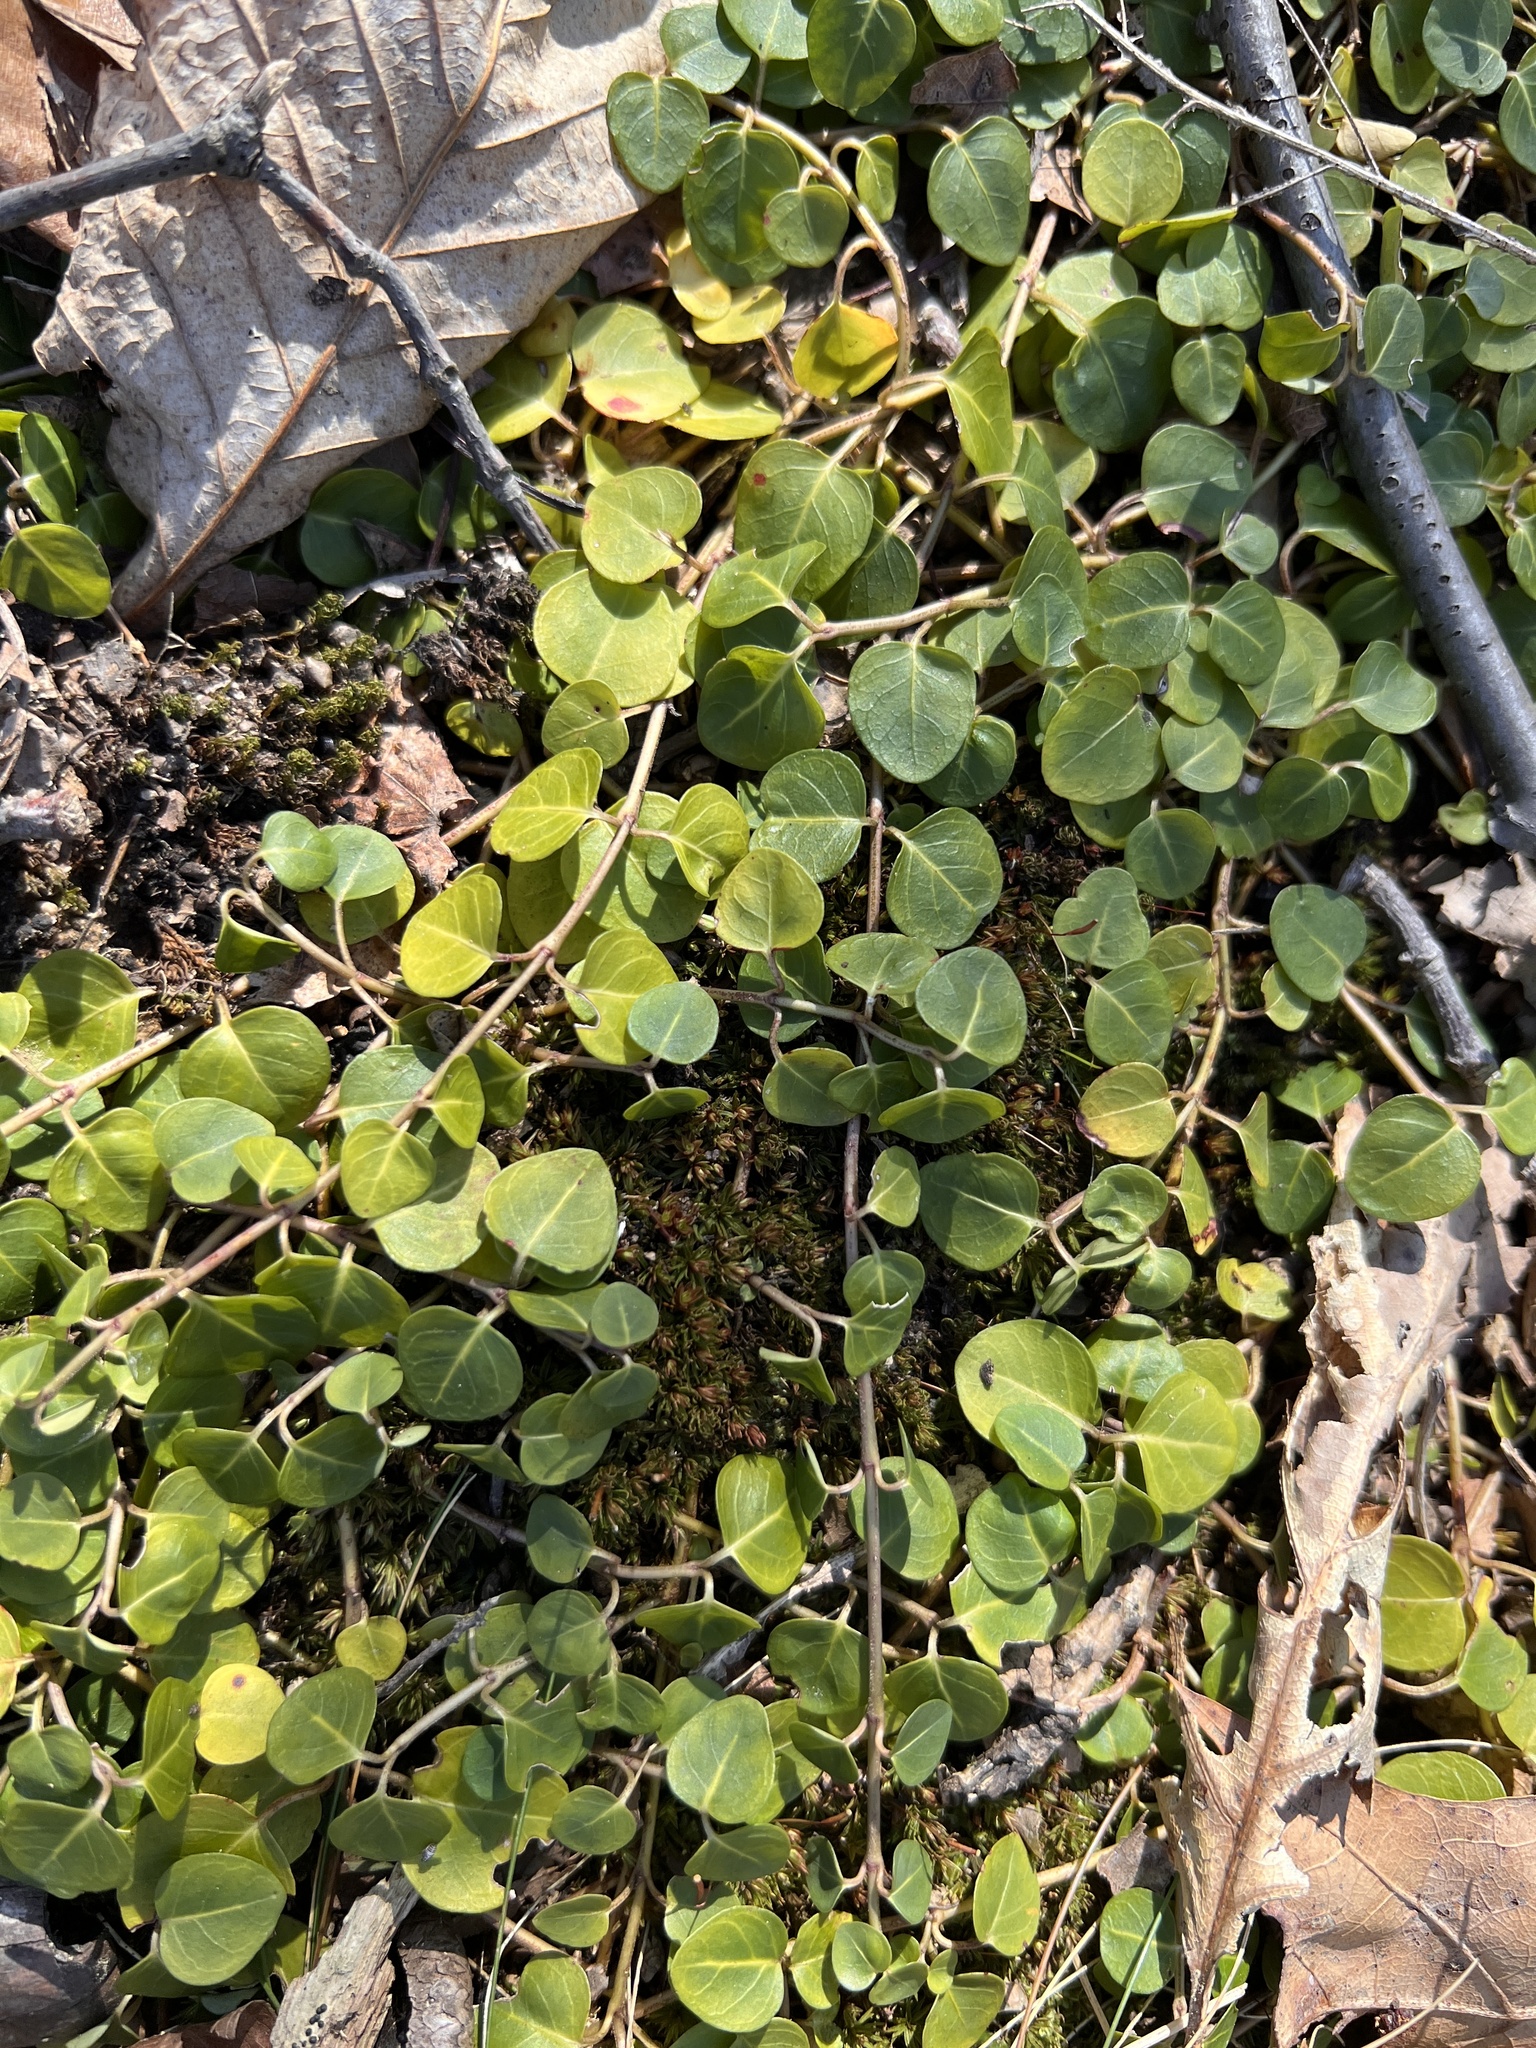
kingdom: Plantae
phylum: Tracheophyta
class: Magnoliopsida
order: Gentianales
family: Rubiaceae
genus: Mitchella
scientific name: Mitchella repens
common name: Partridge-berry
